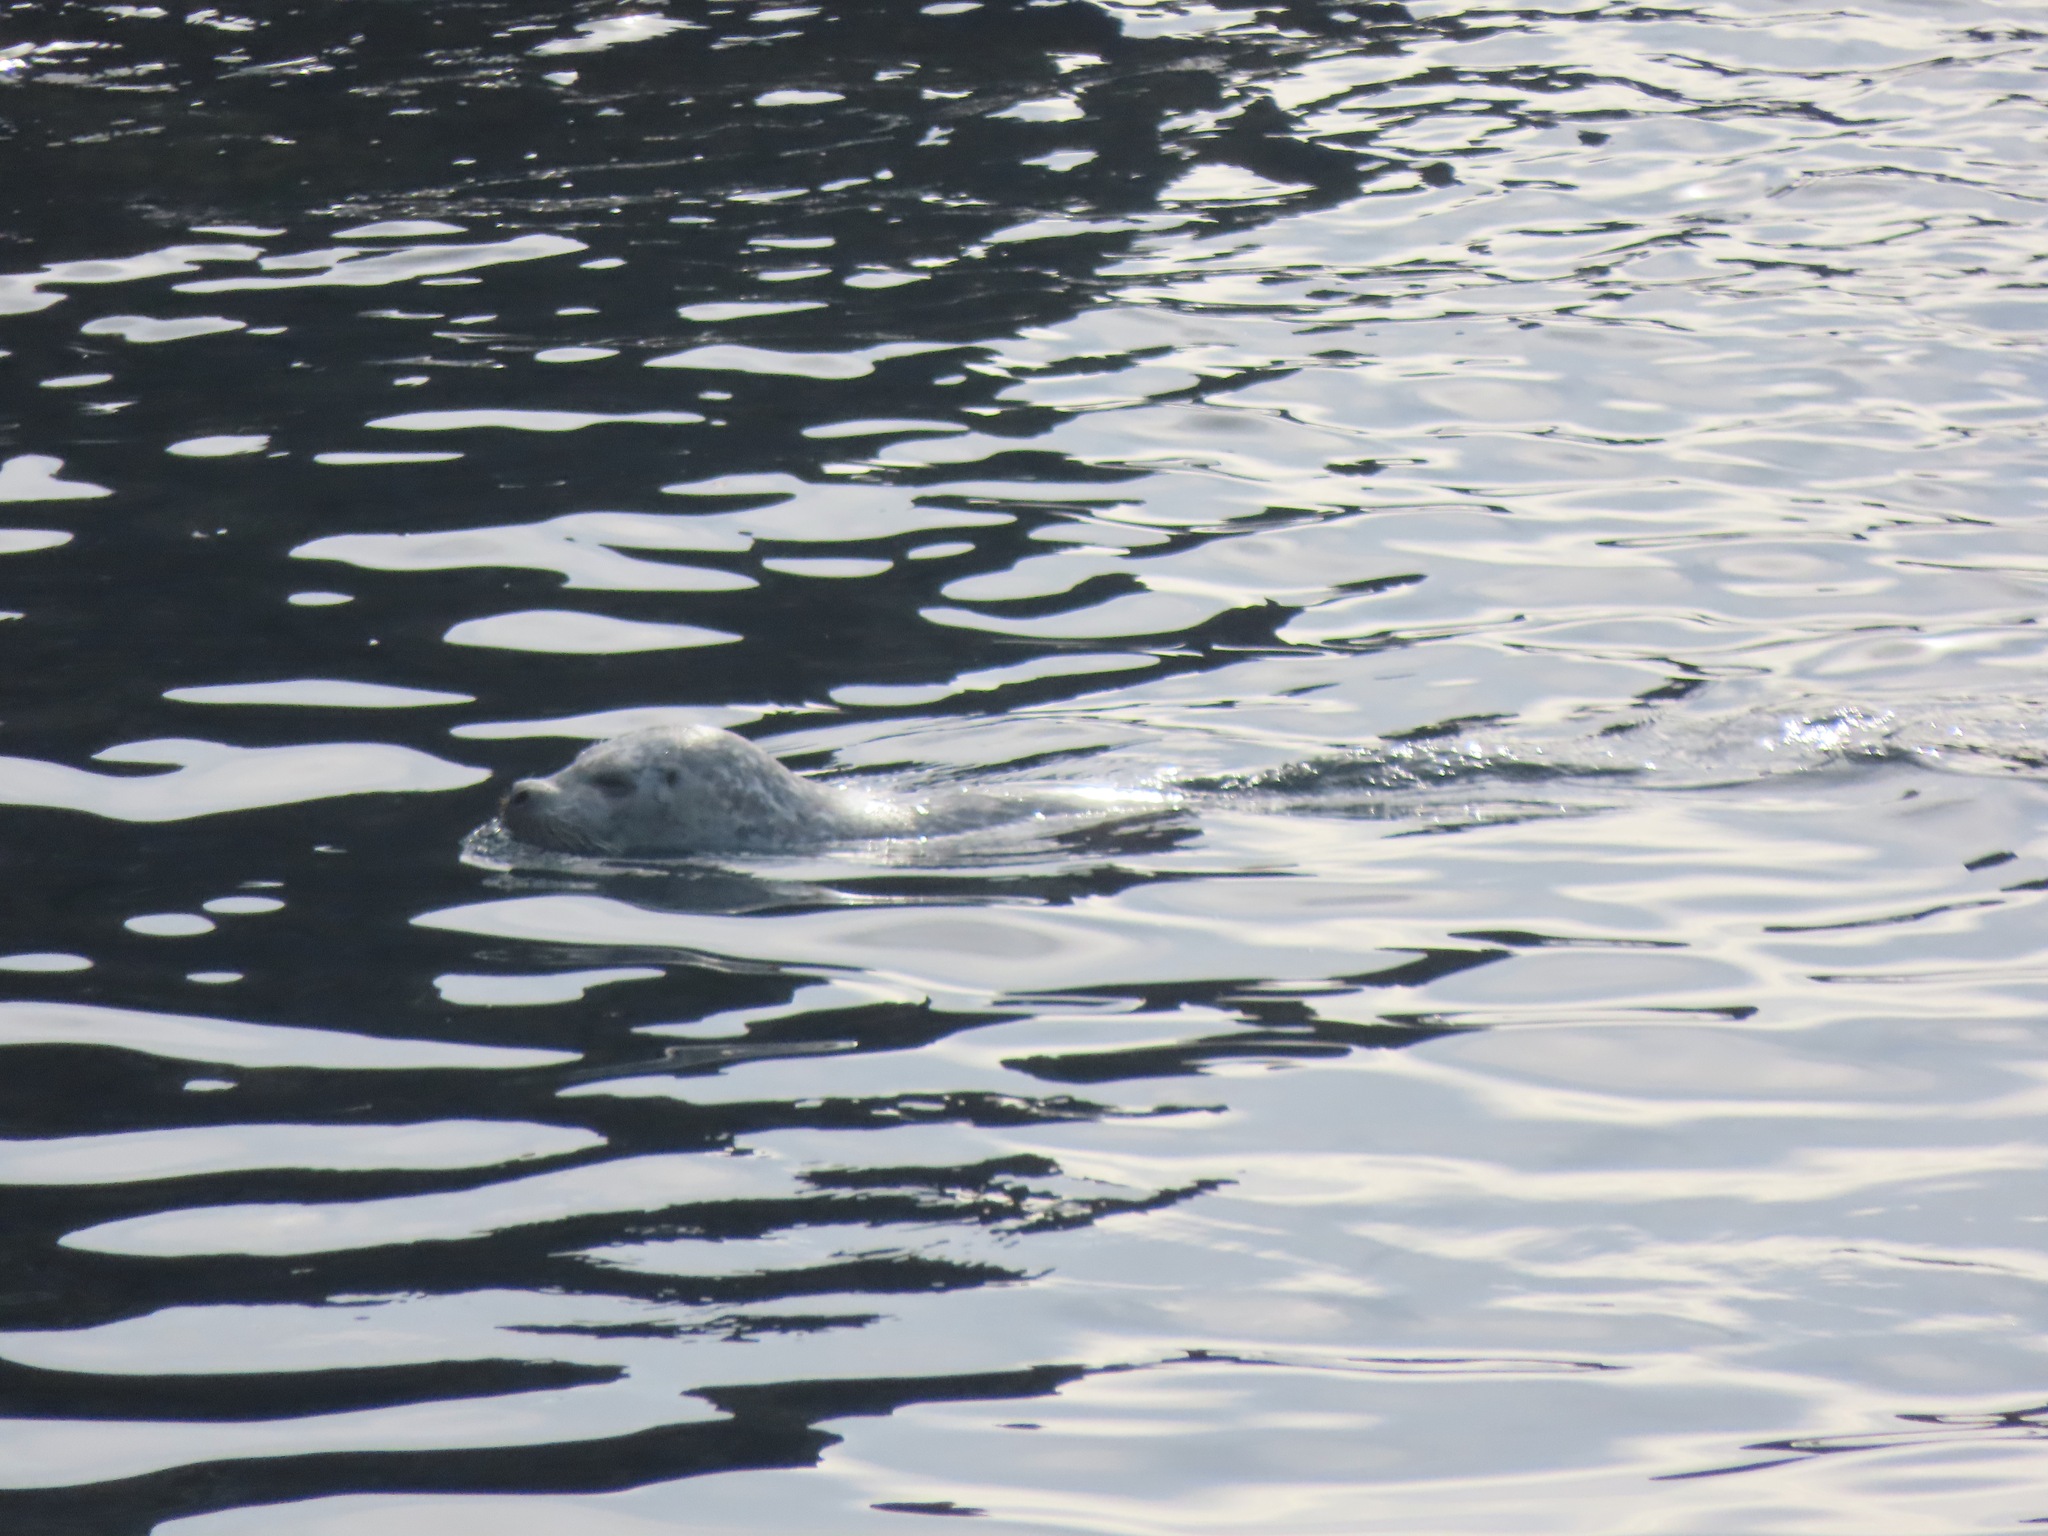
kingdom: Animalia
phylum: Chordata
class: Mammalia
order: Carnivora
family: Phocidae
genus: Phoca
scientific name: Phoca vitulina
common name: Harbor seal
